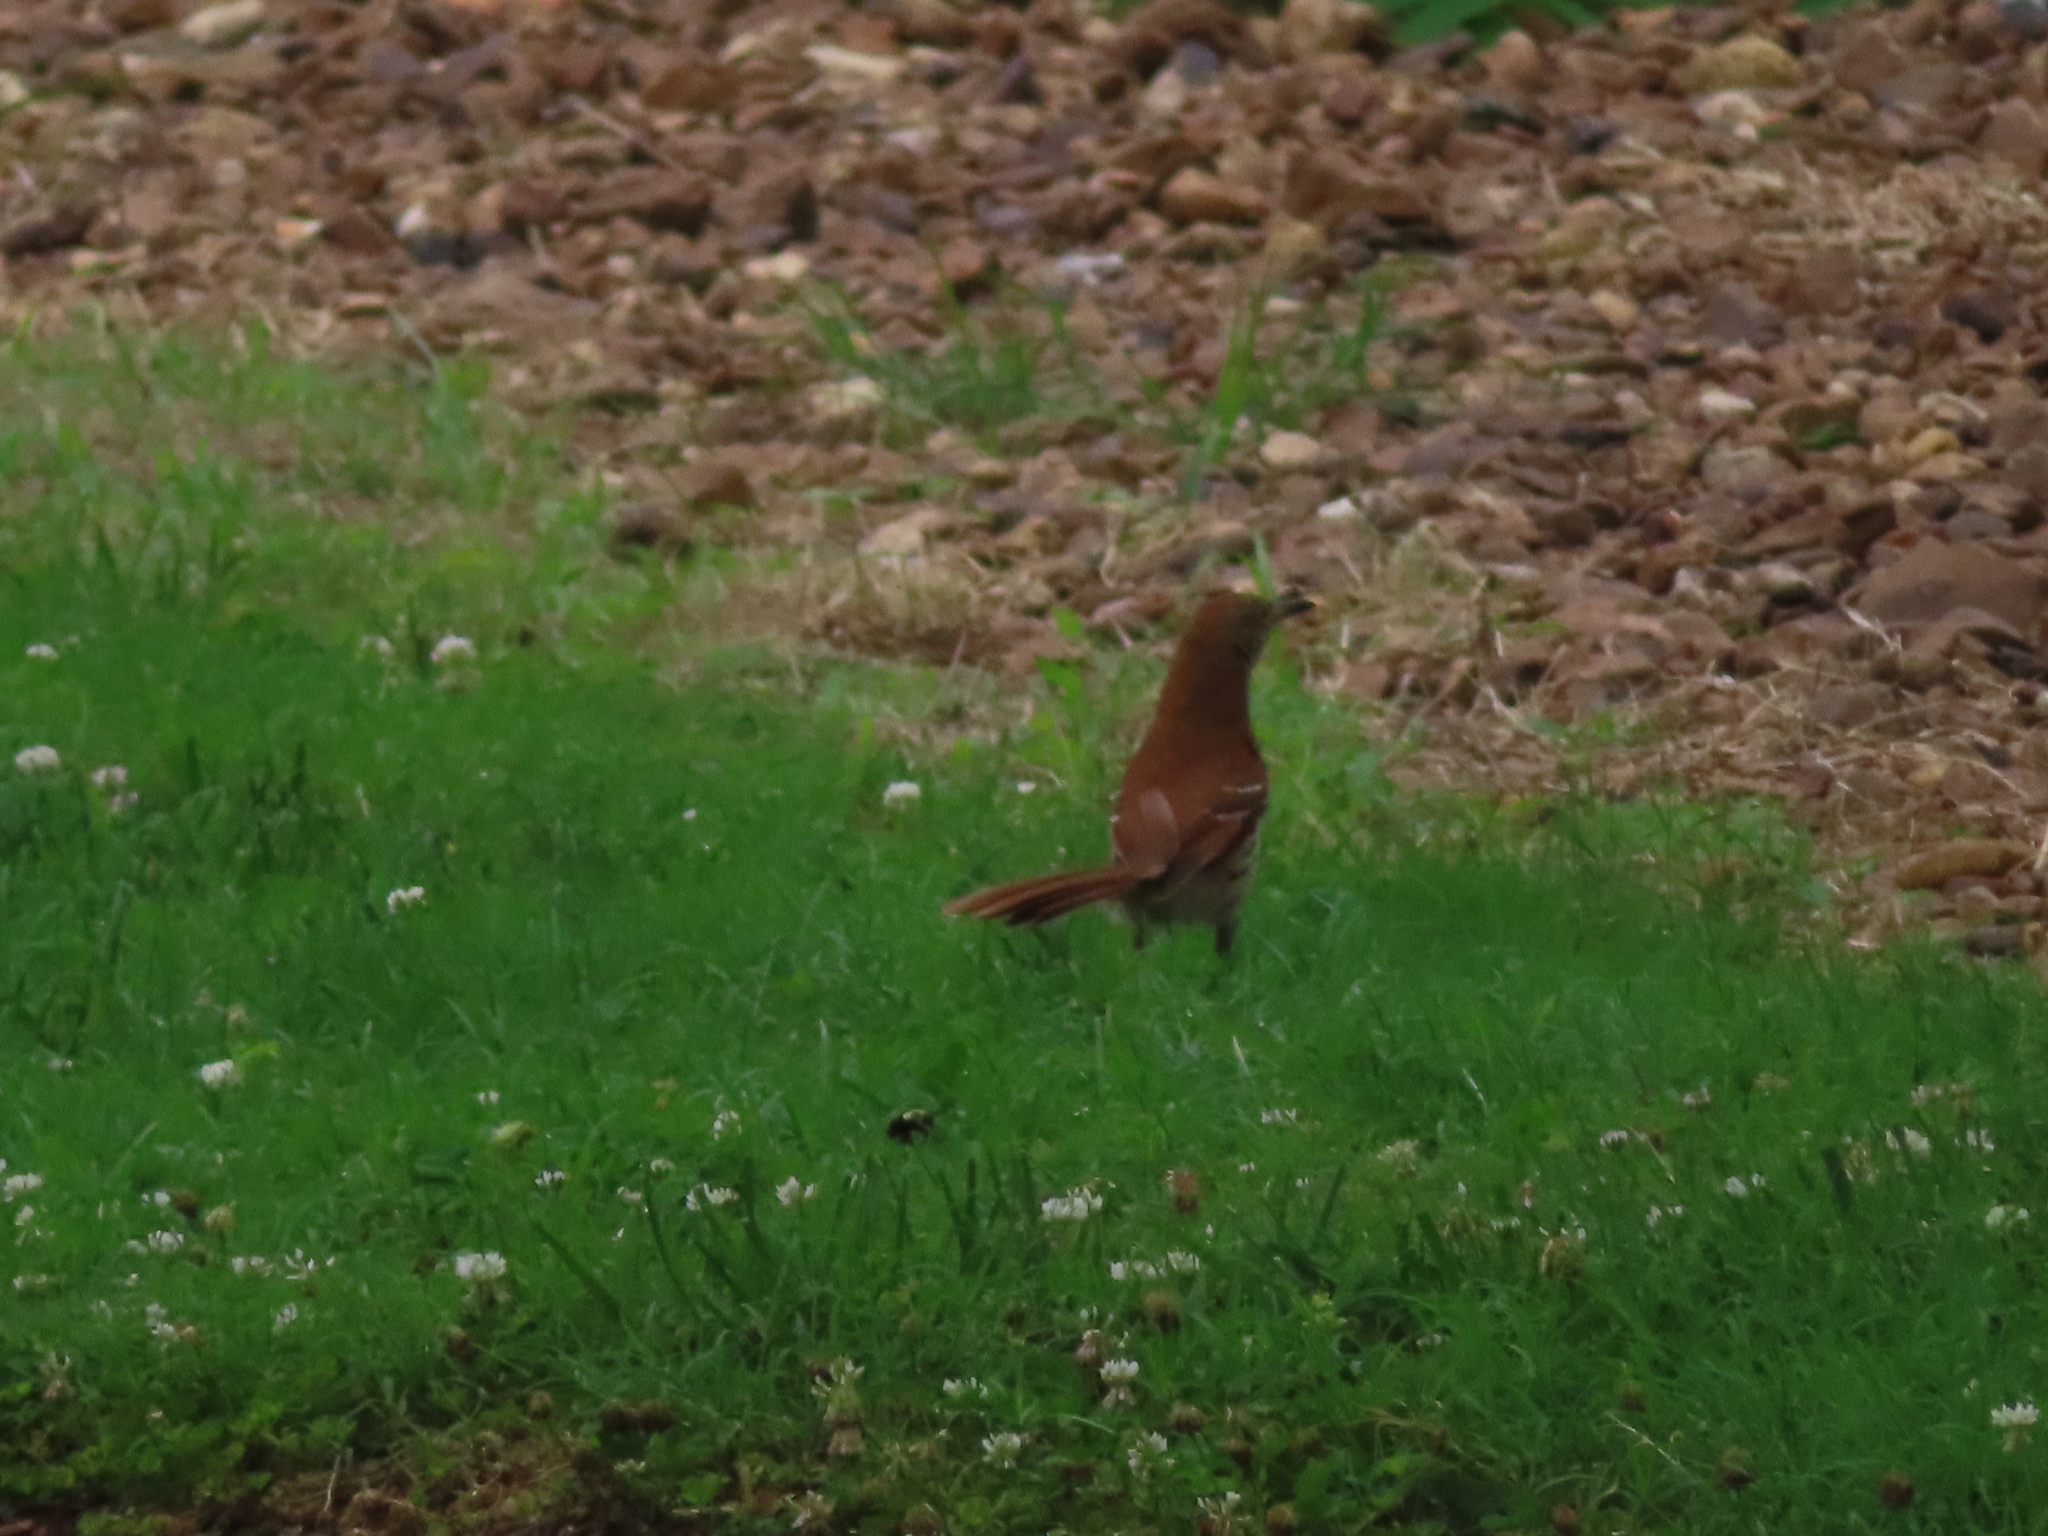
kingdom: Animalia
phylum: Chordata
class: Aves
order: Passeriformes
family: Mimidae
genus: Toxostoma
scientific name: Toxostoma rufum
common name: Brown thrasher
